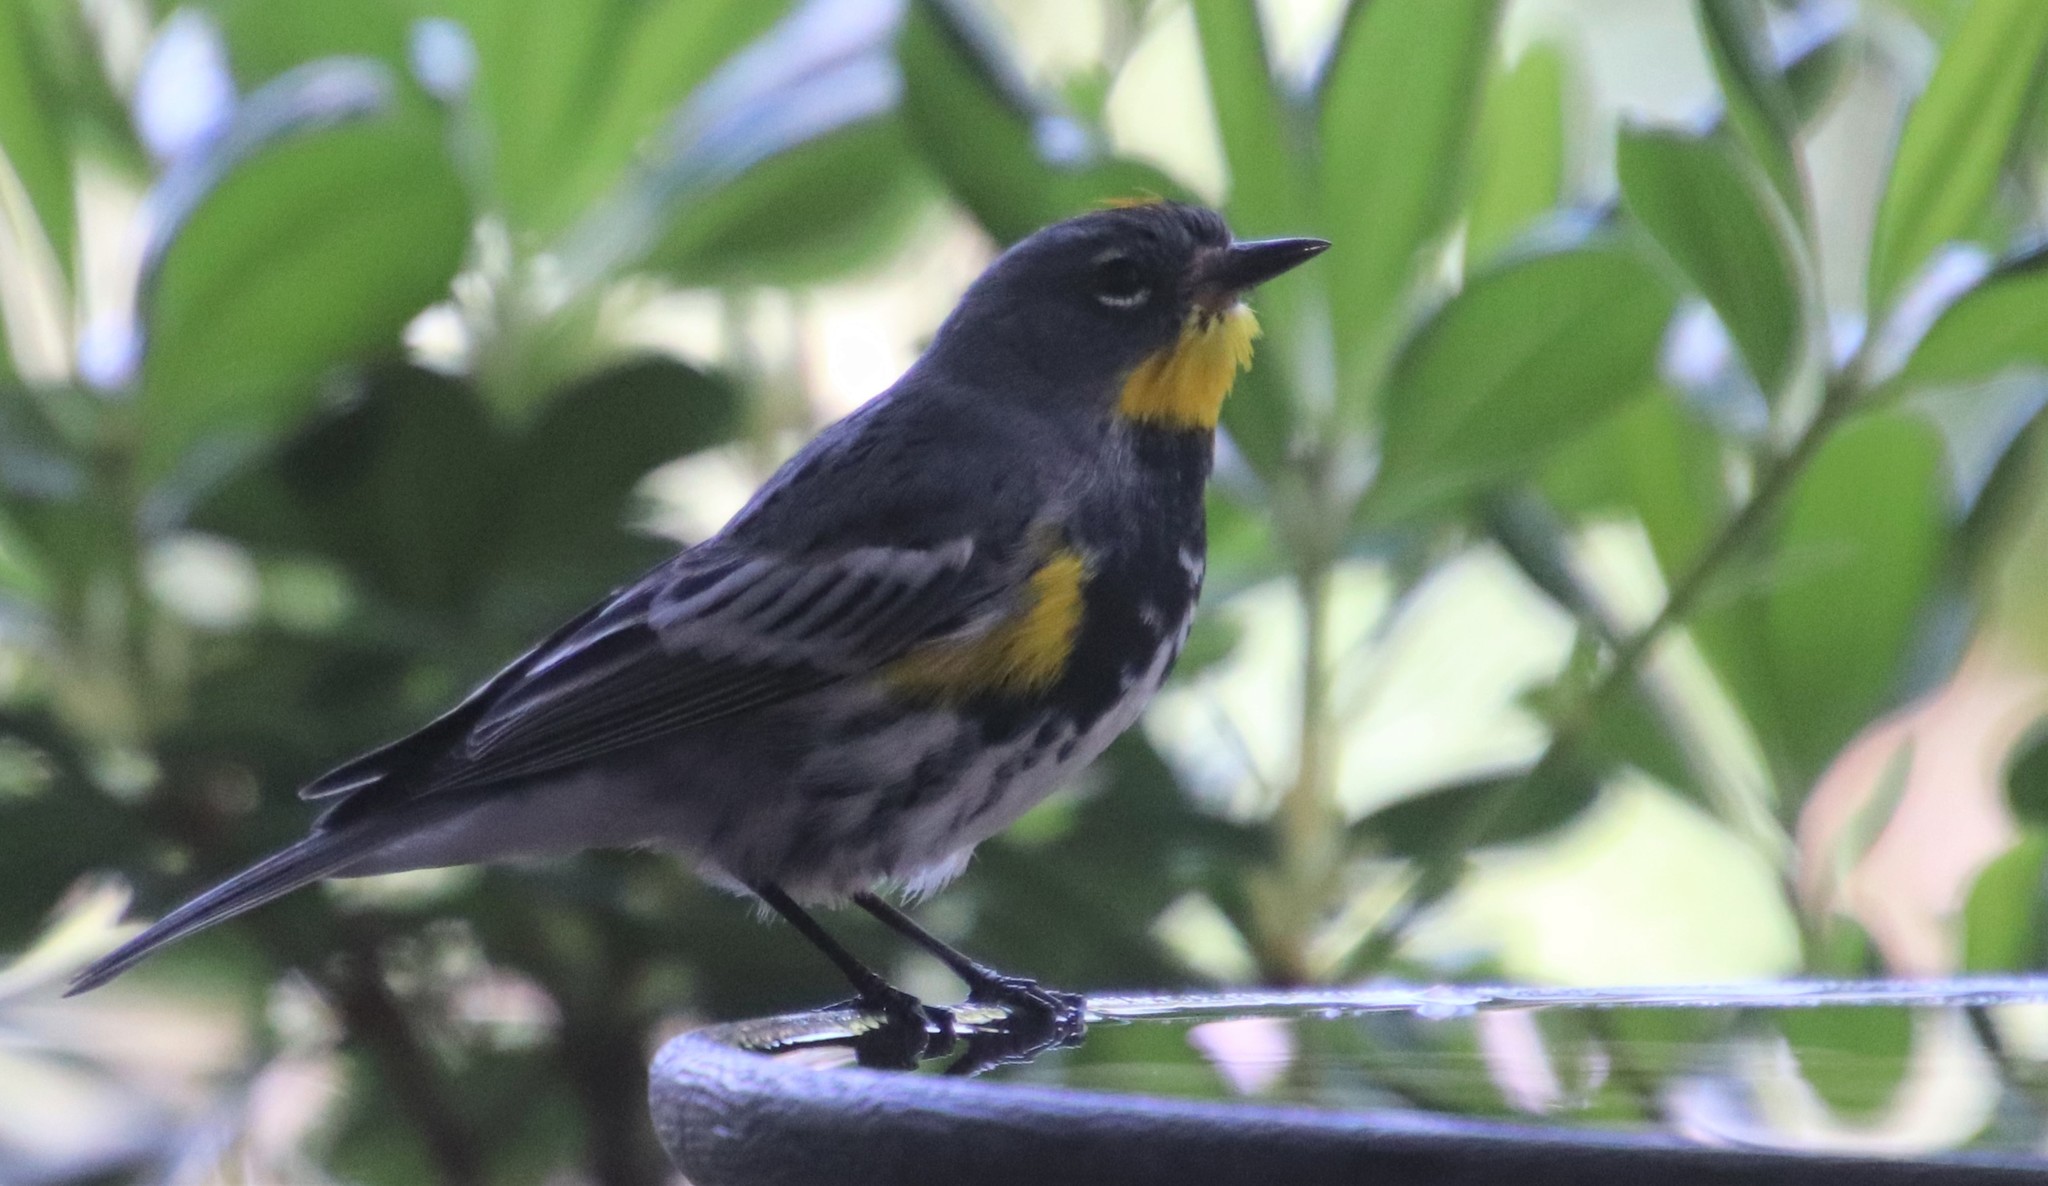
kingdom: Animalia
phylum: Chordata
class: Aves
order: Passeriformes
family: Parulidae
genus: Setophaga
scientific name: Setophaga auduboni
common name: Audubon's warbler
